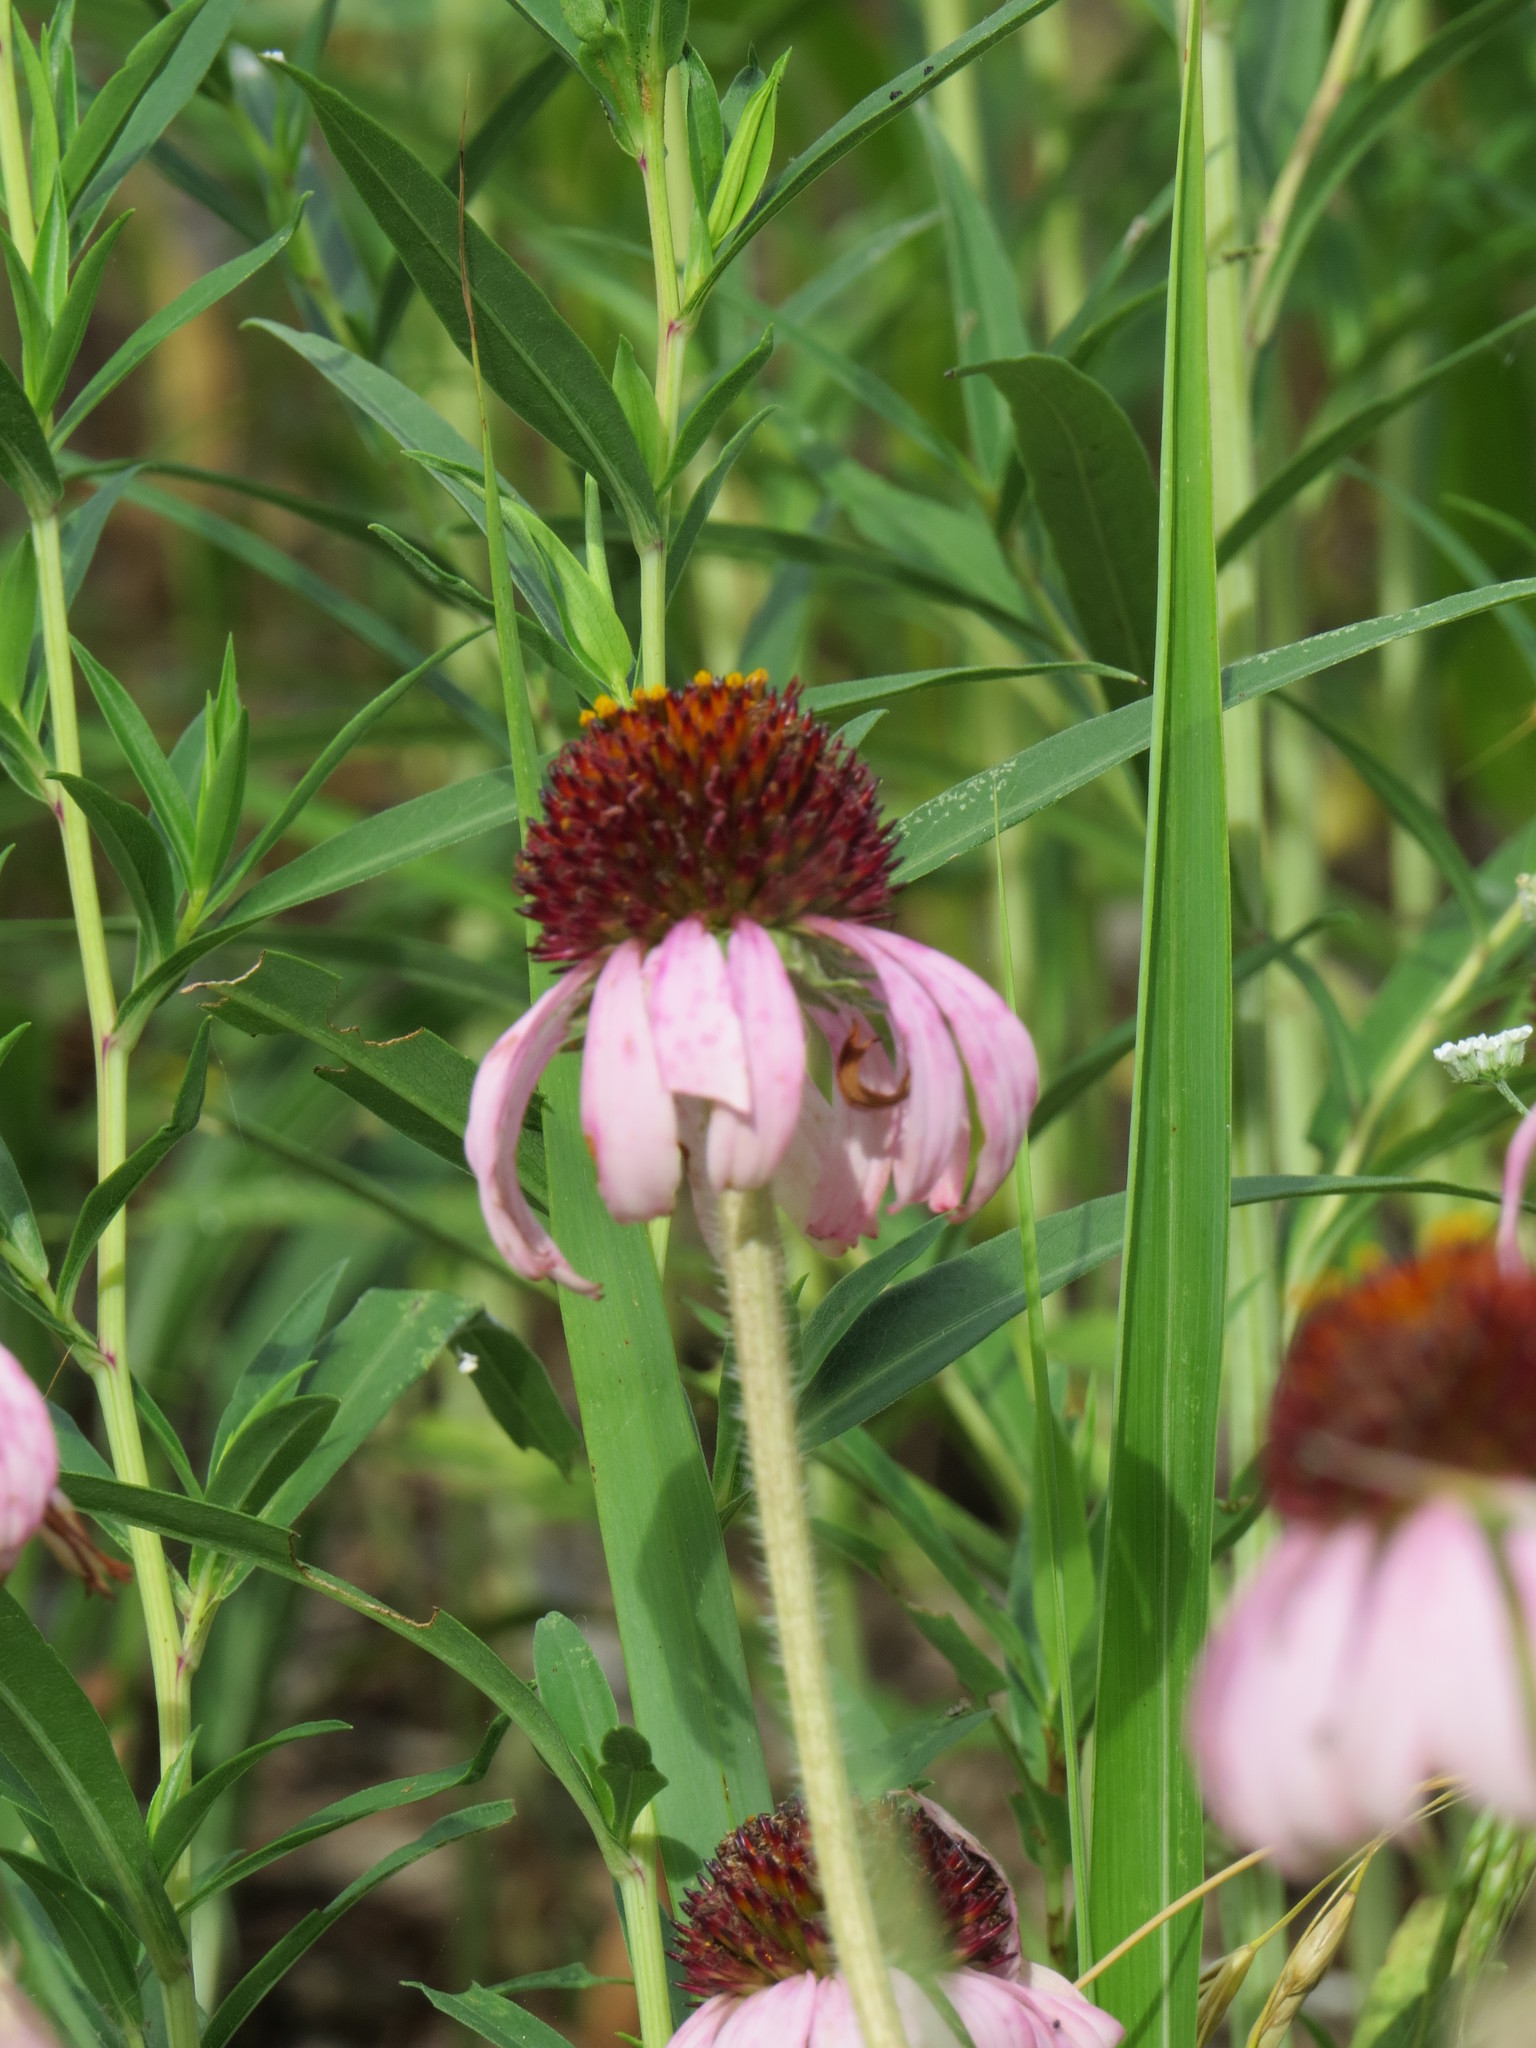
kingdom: Plantae
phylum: Tracheophyta
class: Magnoliopsida
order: Asterales
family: Asteraceae
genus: Echinacea
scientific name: Echinacea angustifolia
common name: Black-sampson echinacea
